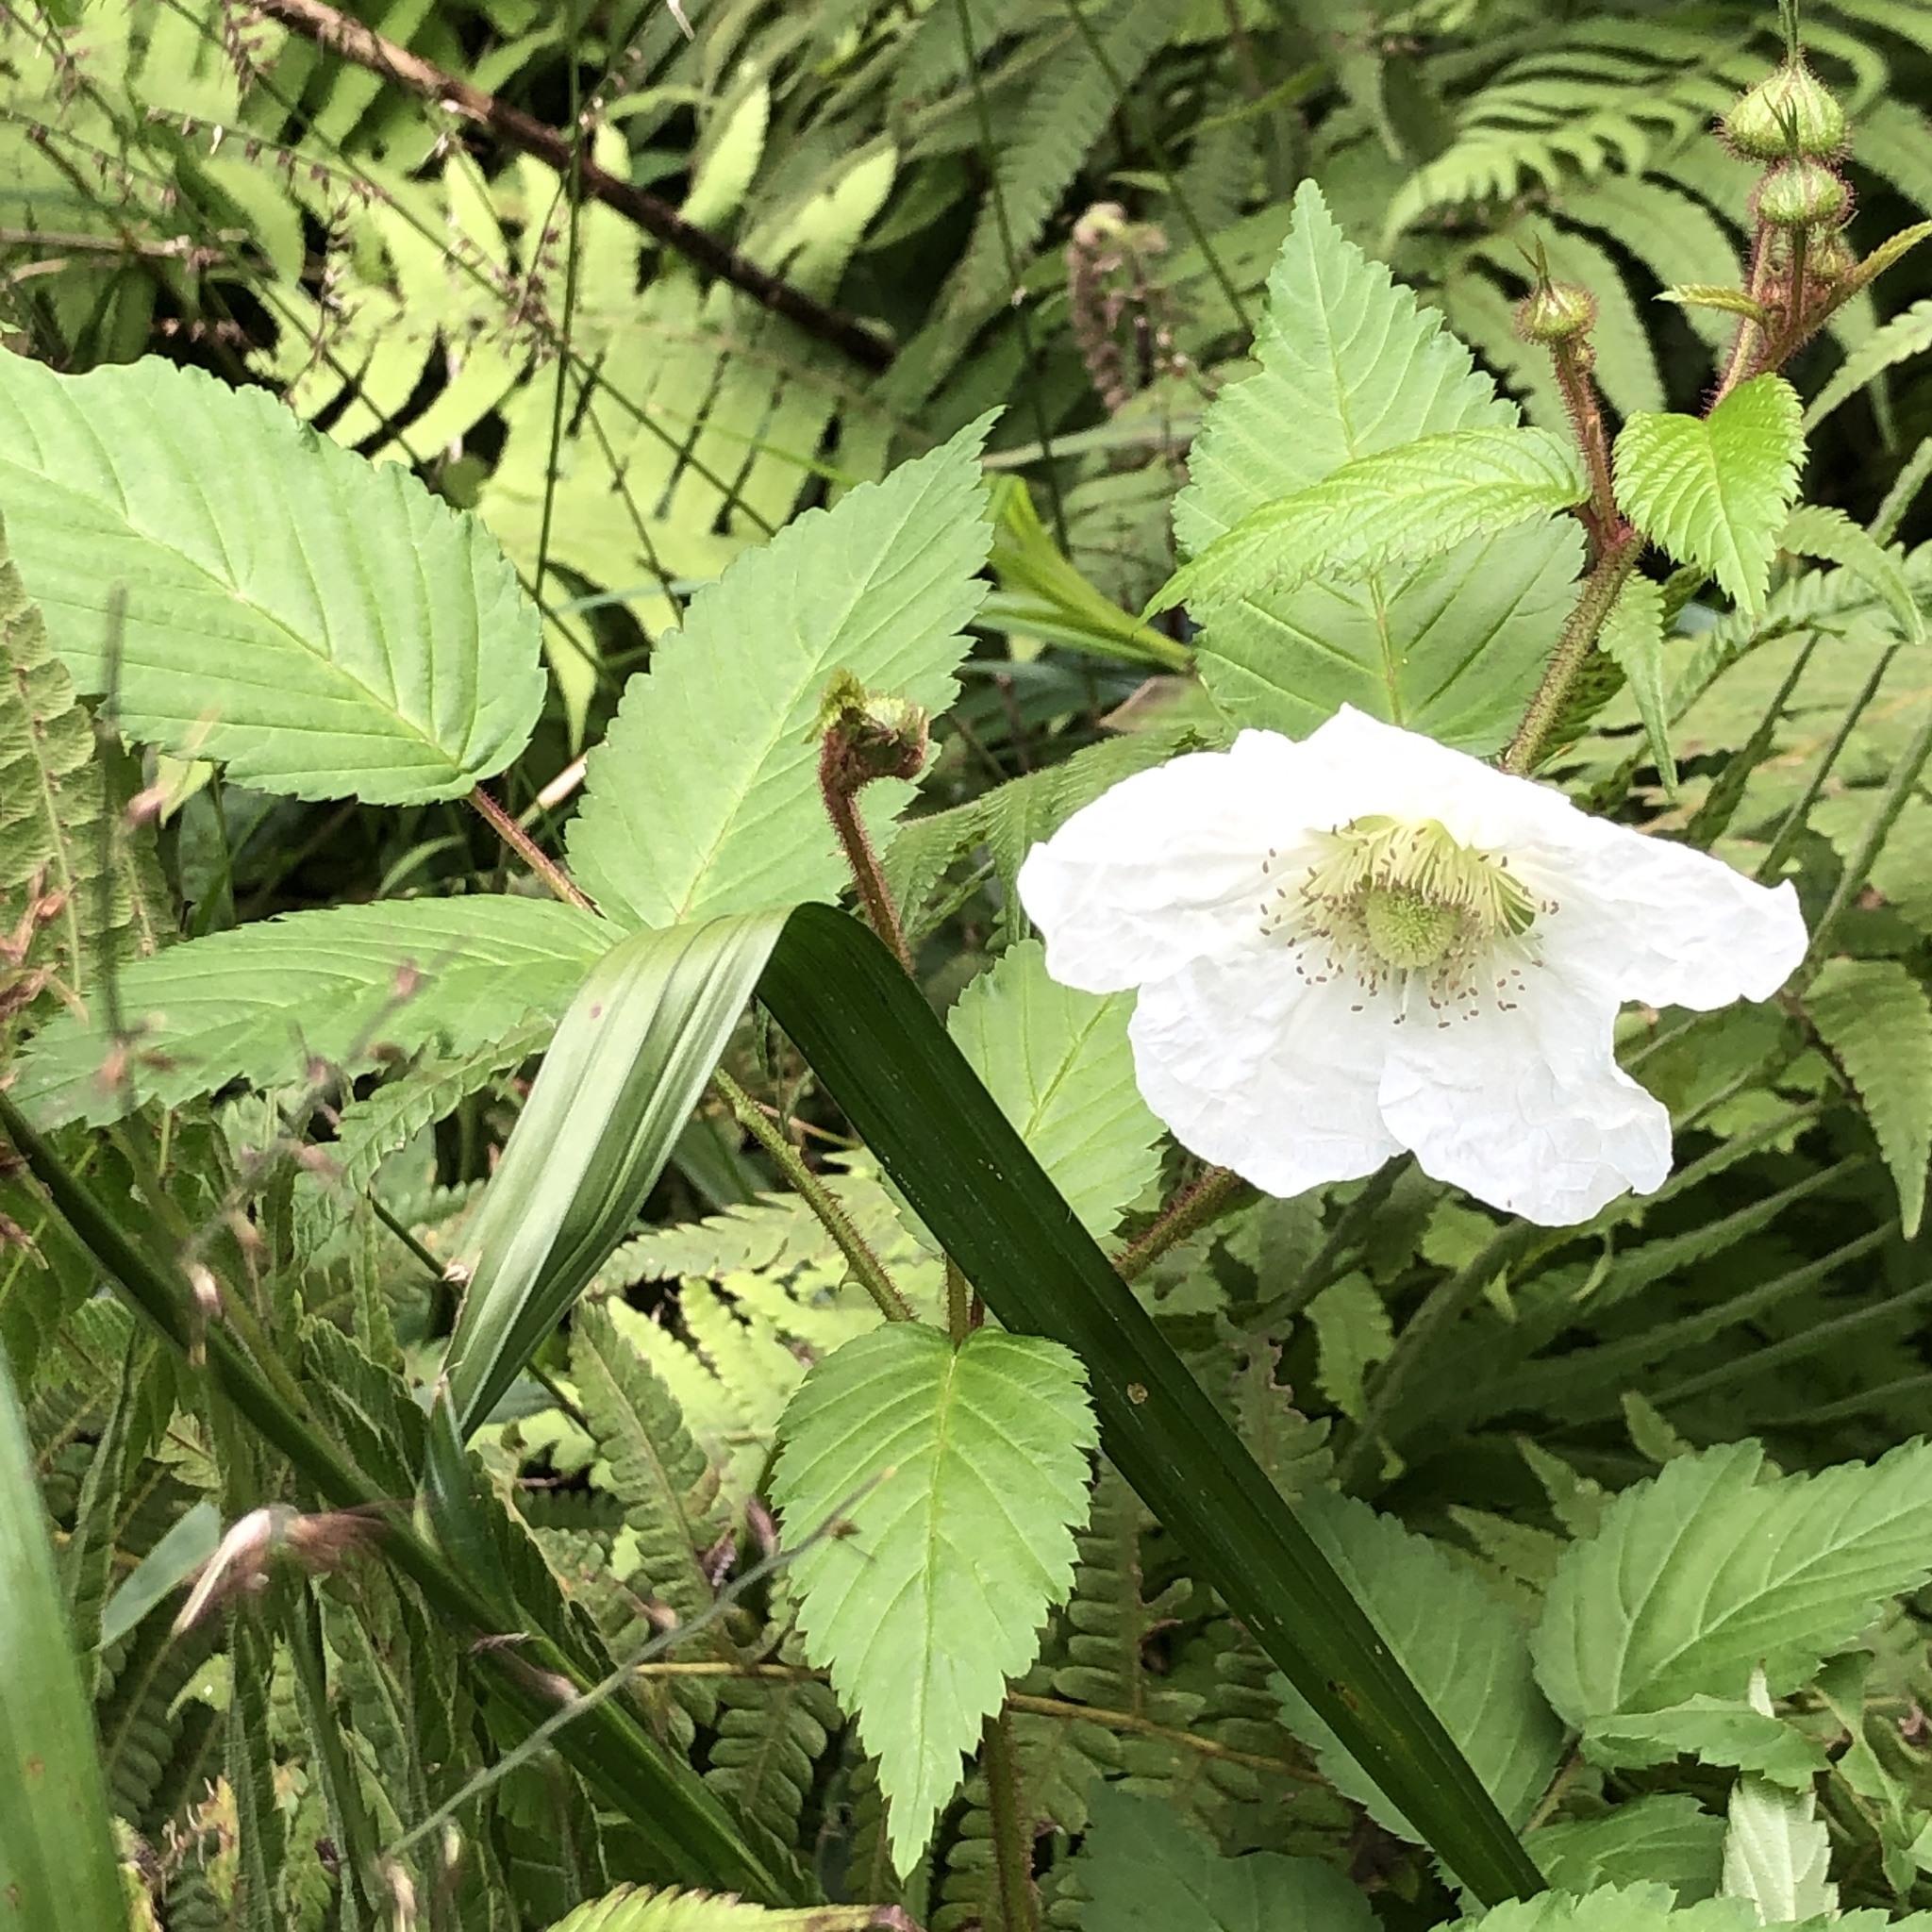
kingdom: Plantae
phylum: Tracheophyta
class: Magnoliopsida
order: Rosales
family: Rosaceae
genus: Rubus
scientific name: Rubus okinawensis
